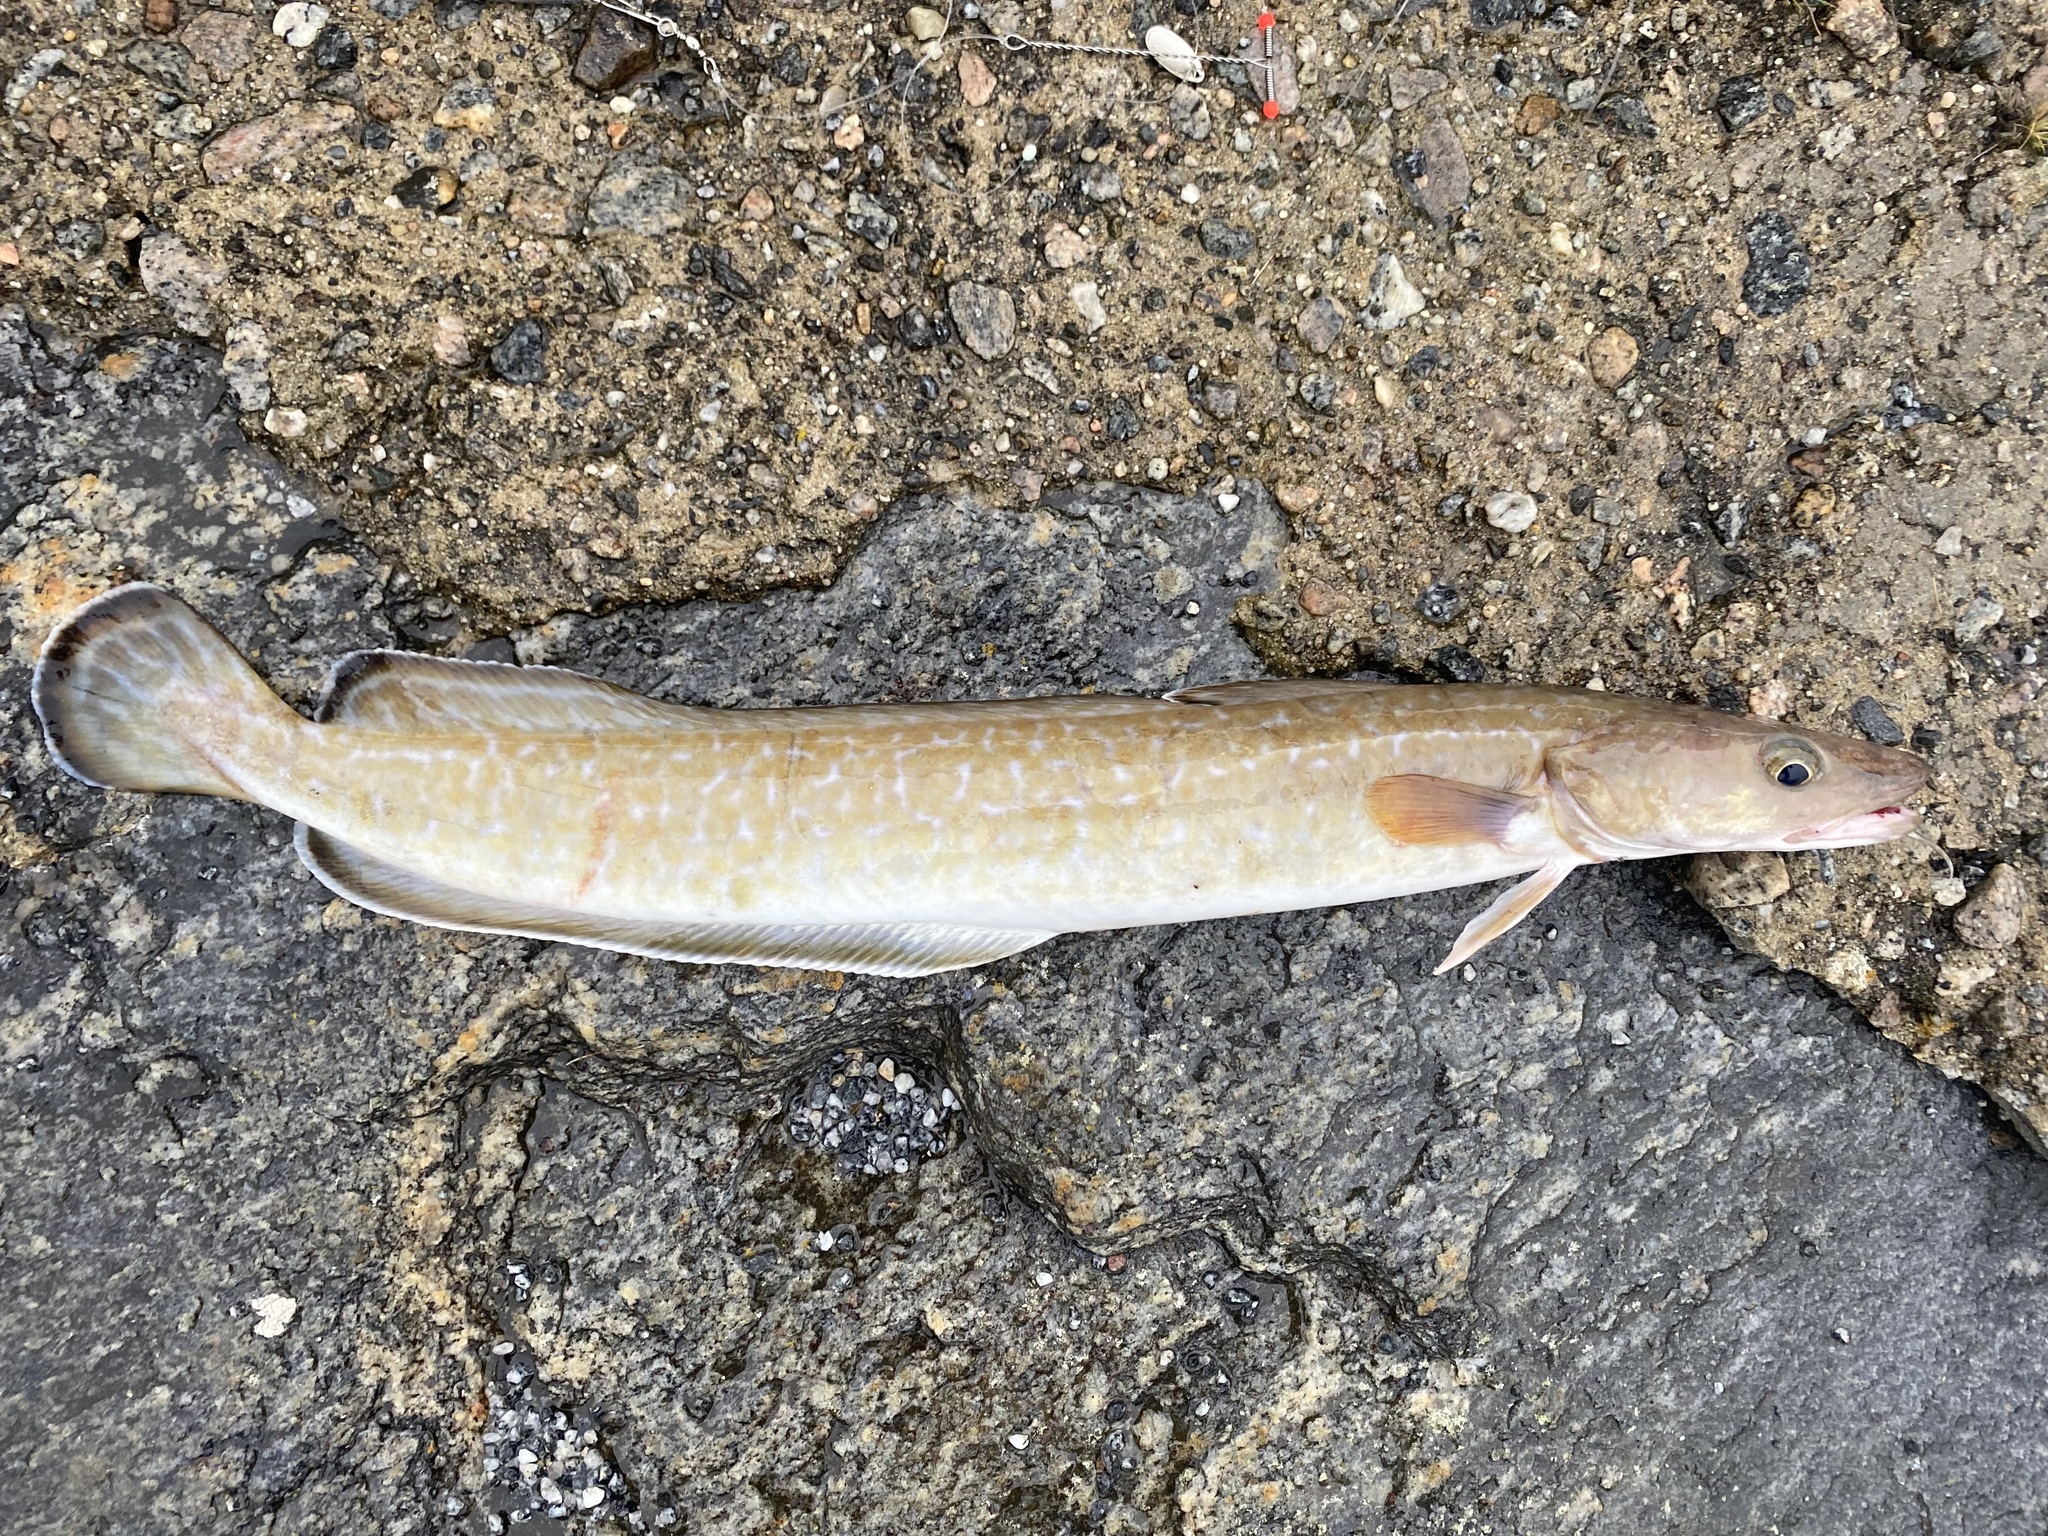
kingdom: Animalia
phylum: Chordata
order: Gadiformes
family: Lotidae
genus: Molva
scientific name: Molva molva
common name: Ling
